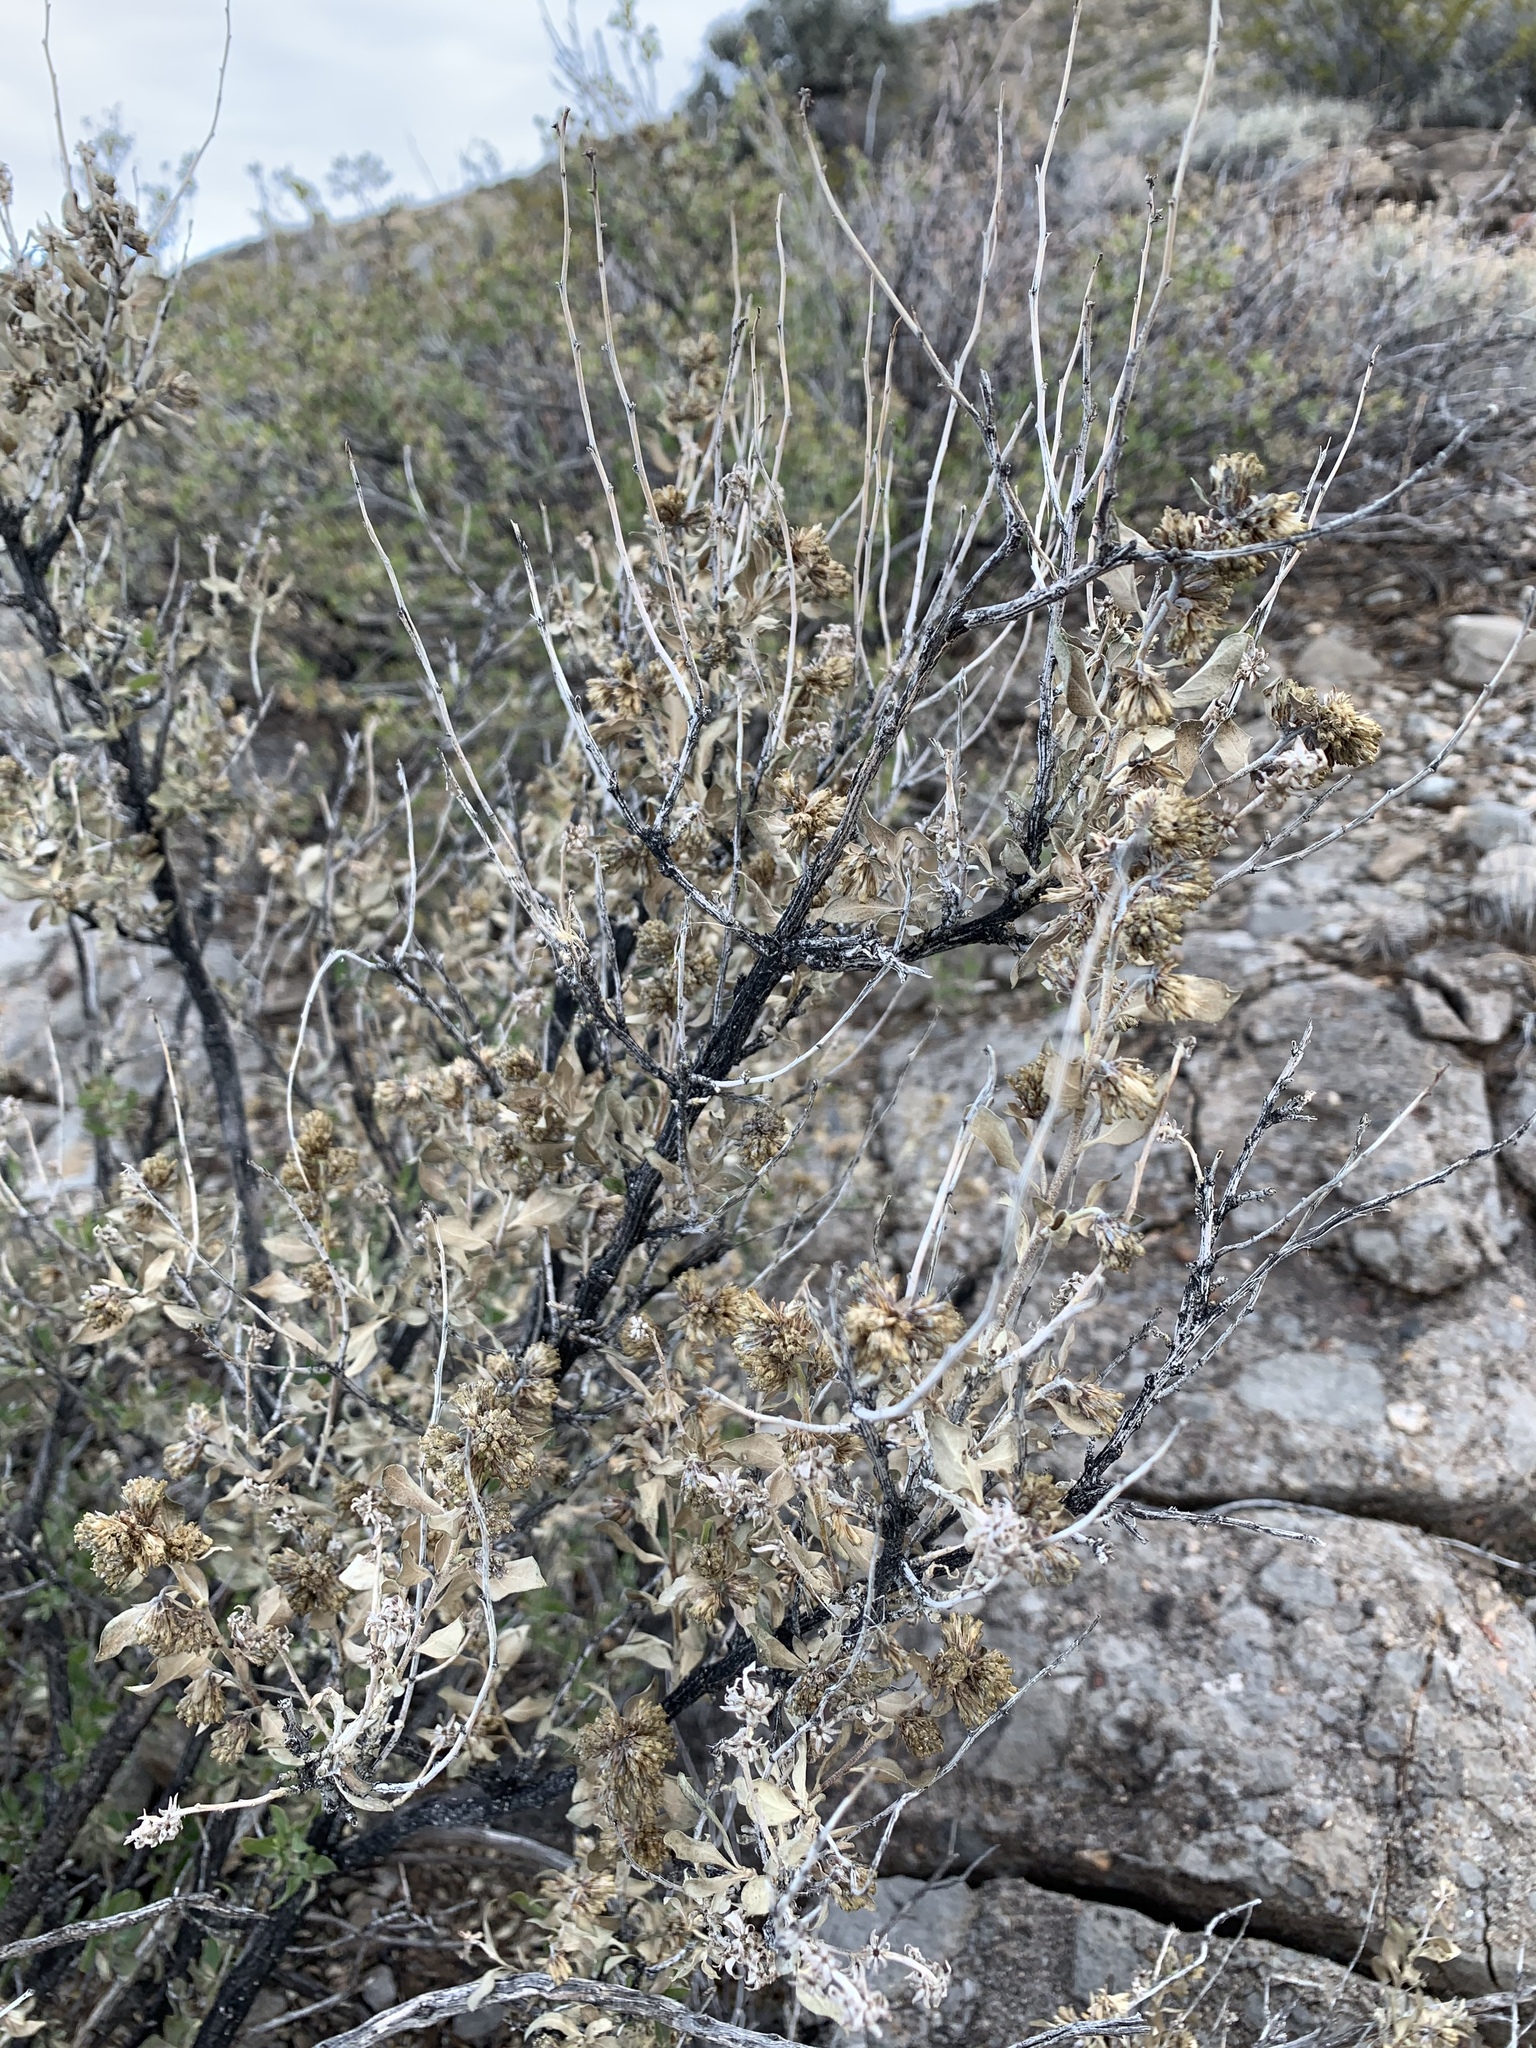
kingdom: Plantae
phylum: Tracheophyta
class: Magnoliopsida
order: Asterales
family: Asteraceae
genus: Flourensia
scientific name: Flourensia cernua
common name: Varnishbush
